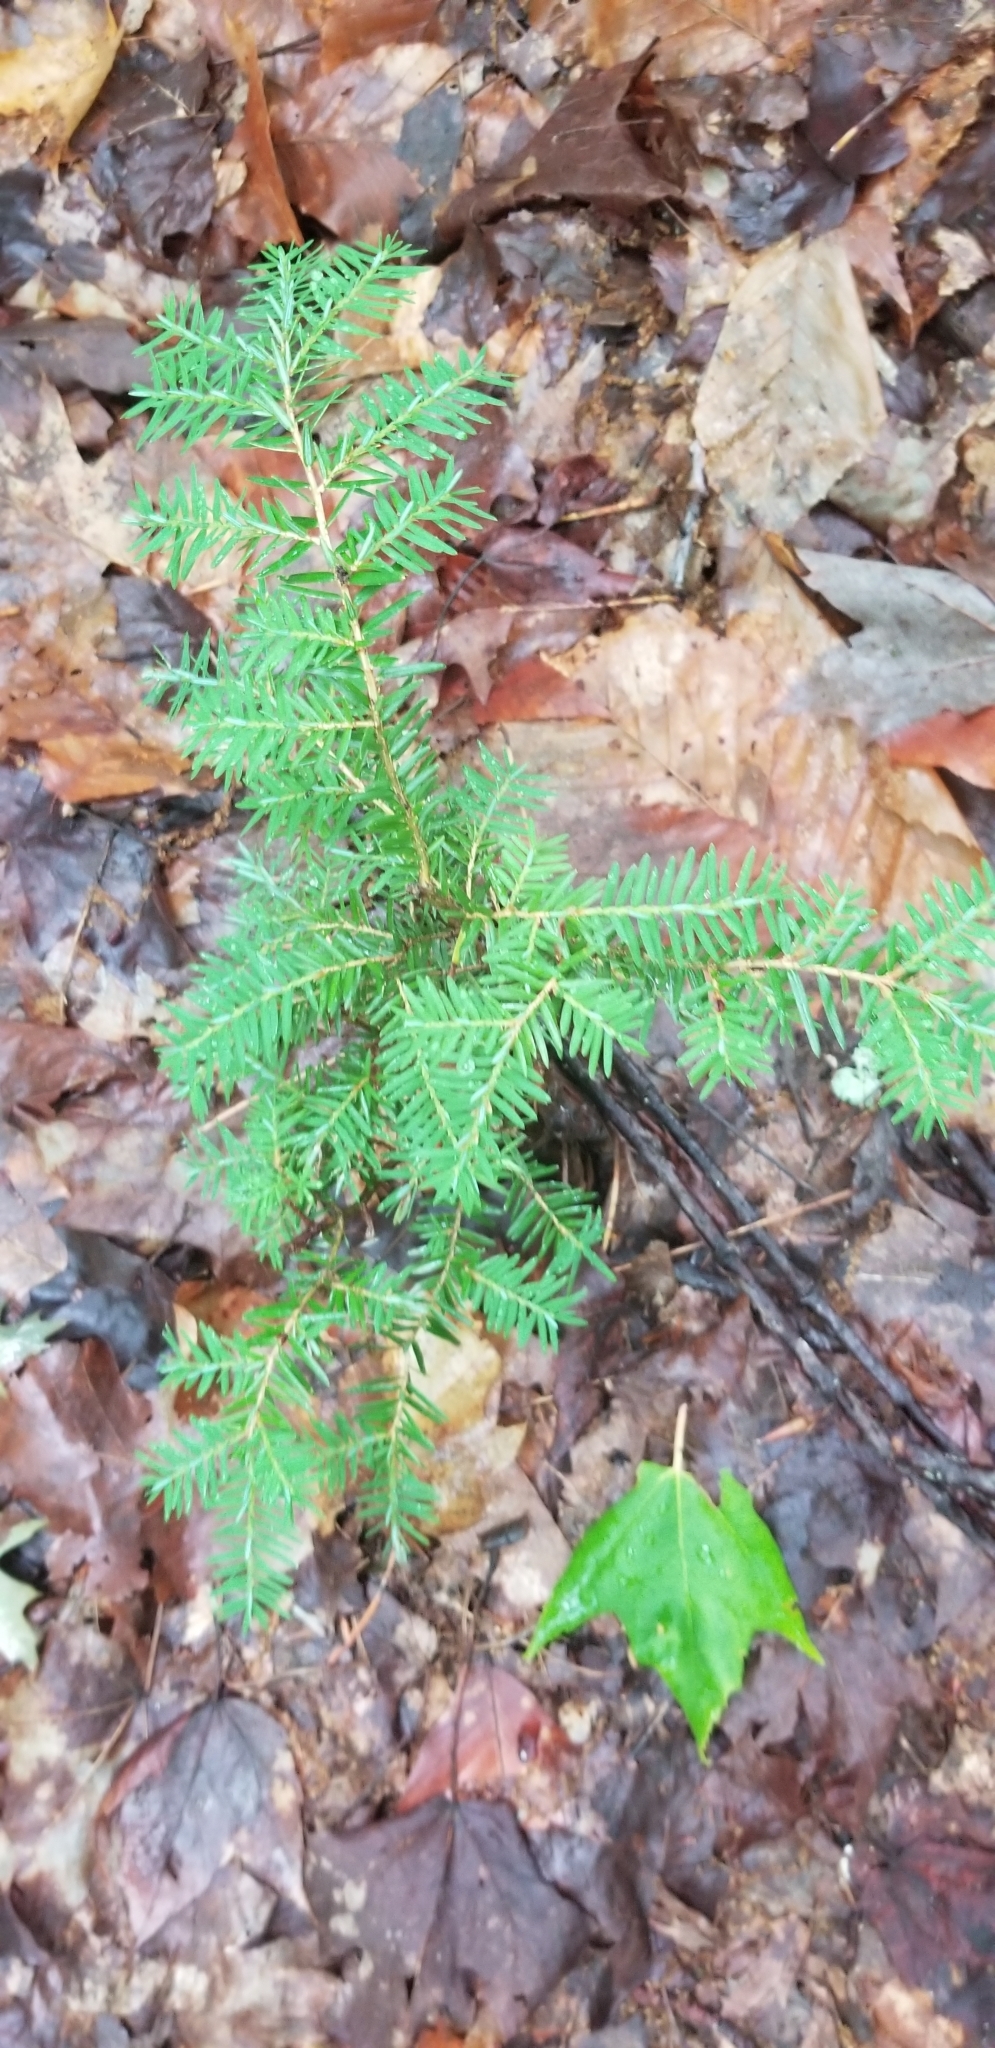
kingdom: Plantae
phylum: Tracheophyta
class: Pinopsida
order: Pinales
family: Pinaceae
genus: Tsuga
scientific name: Tsuga canadensis
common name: Eastern hemlock
